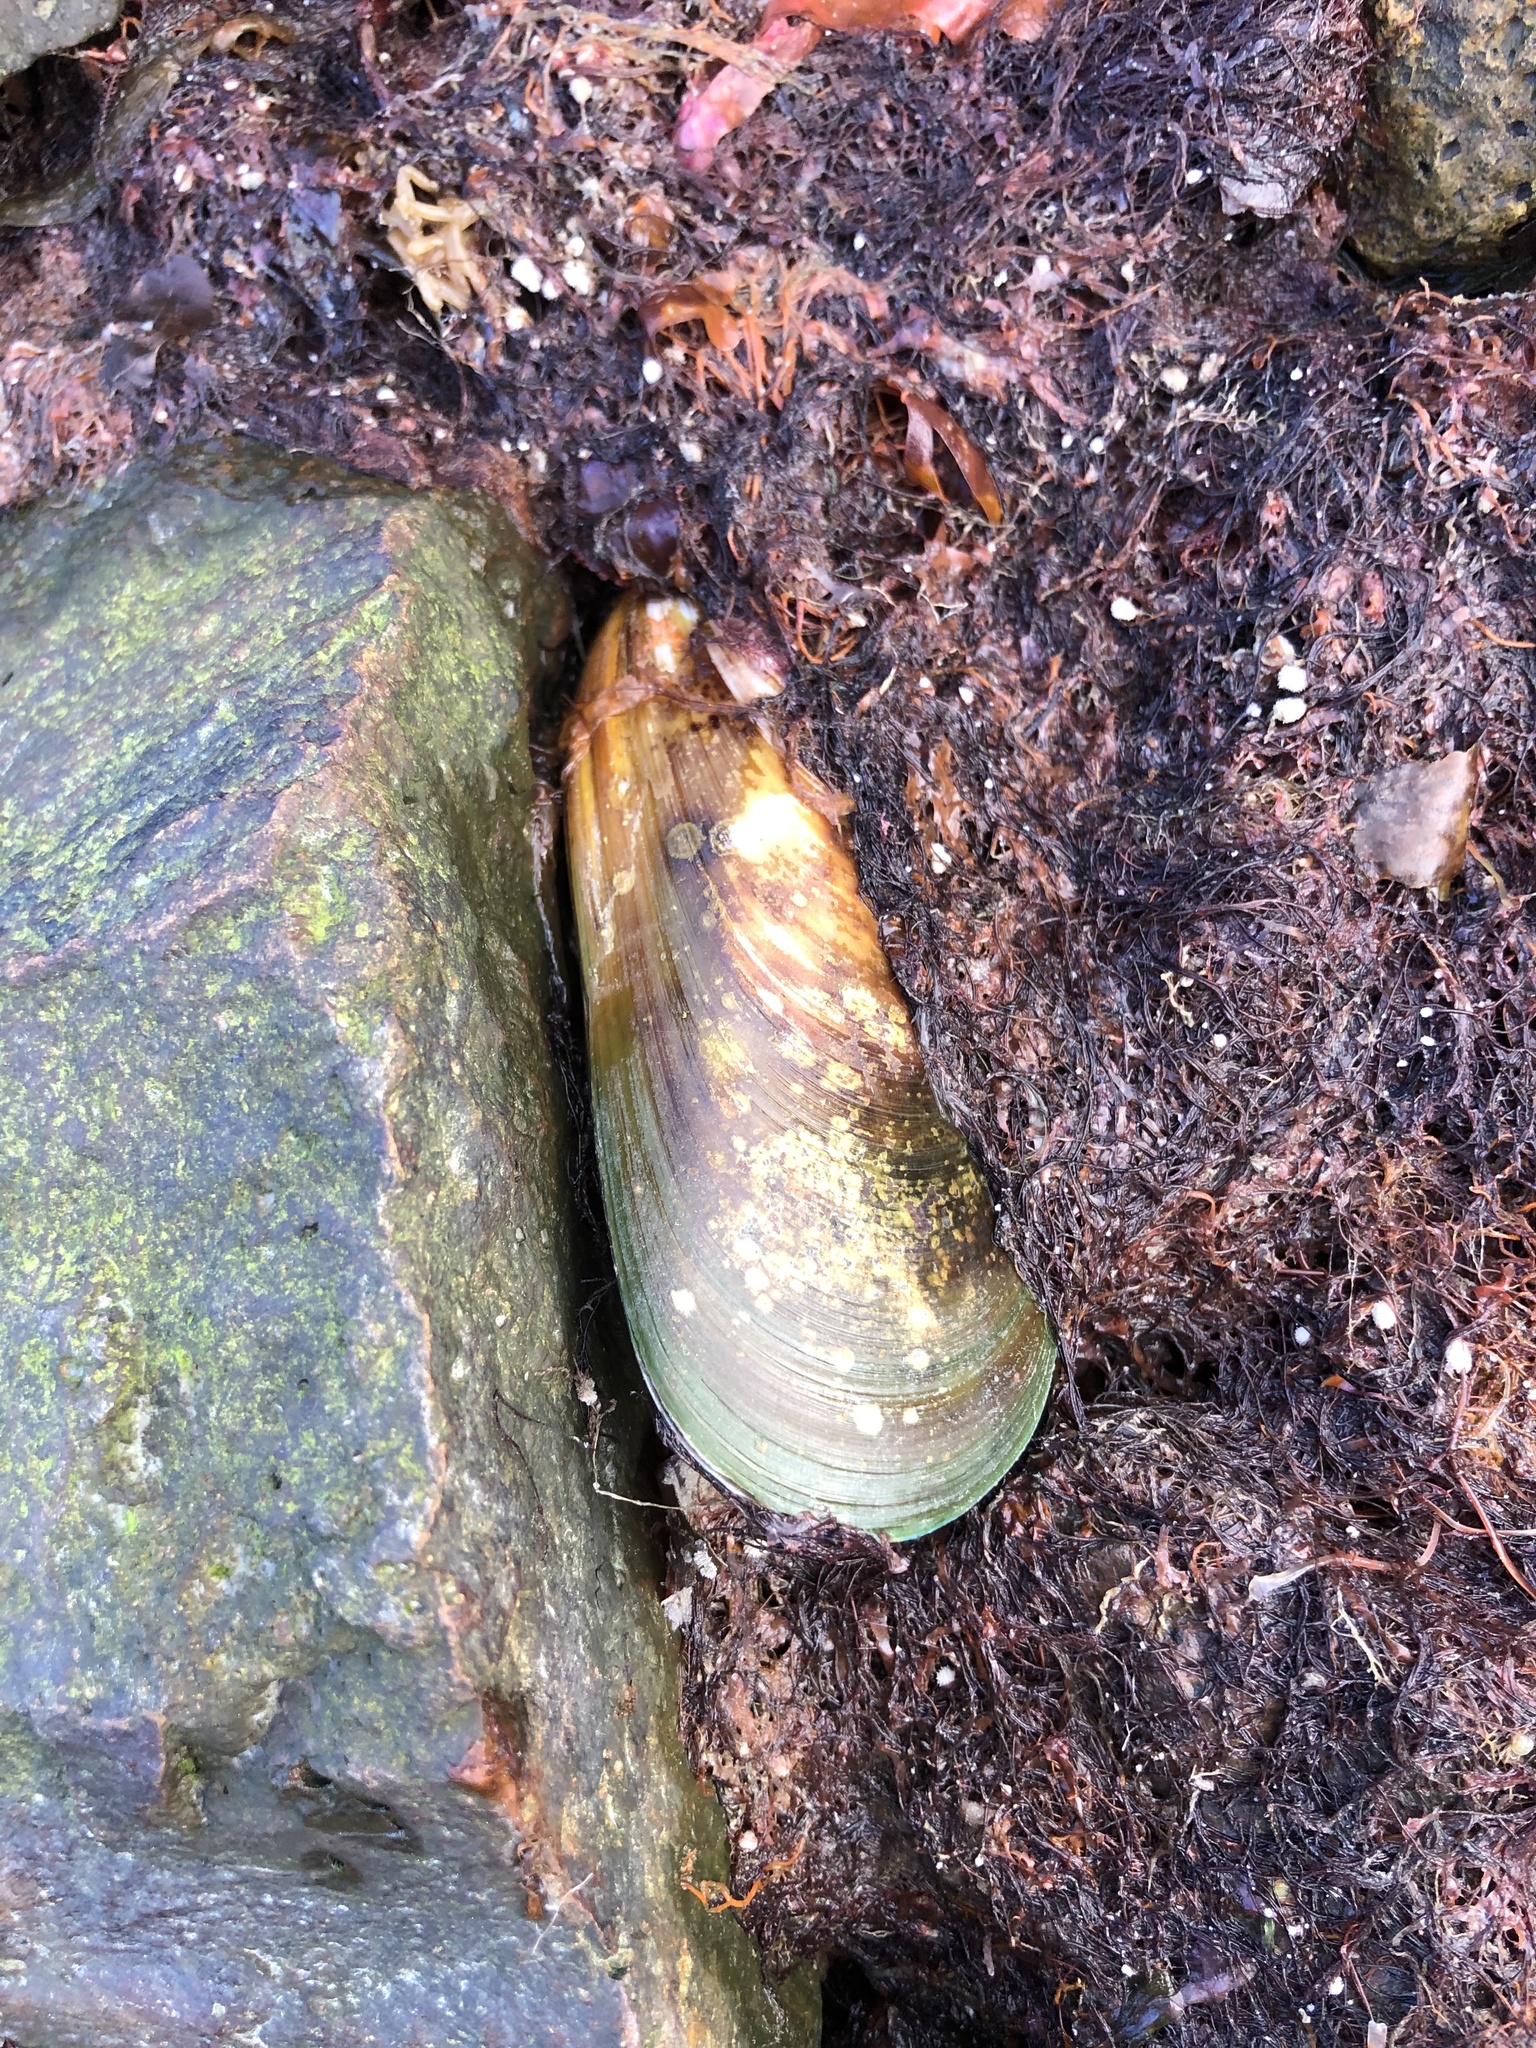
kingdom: Animalia
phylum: Mollusca
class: Bivalvia
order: Mytilida
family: Mytilidae
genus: Perna
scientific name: Perna canaliculus
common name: New zealand greenshelltm
